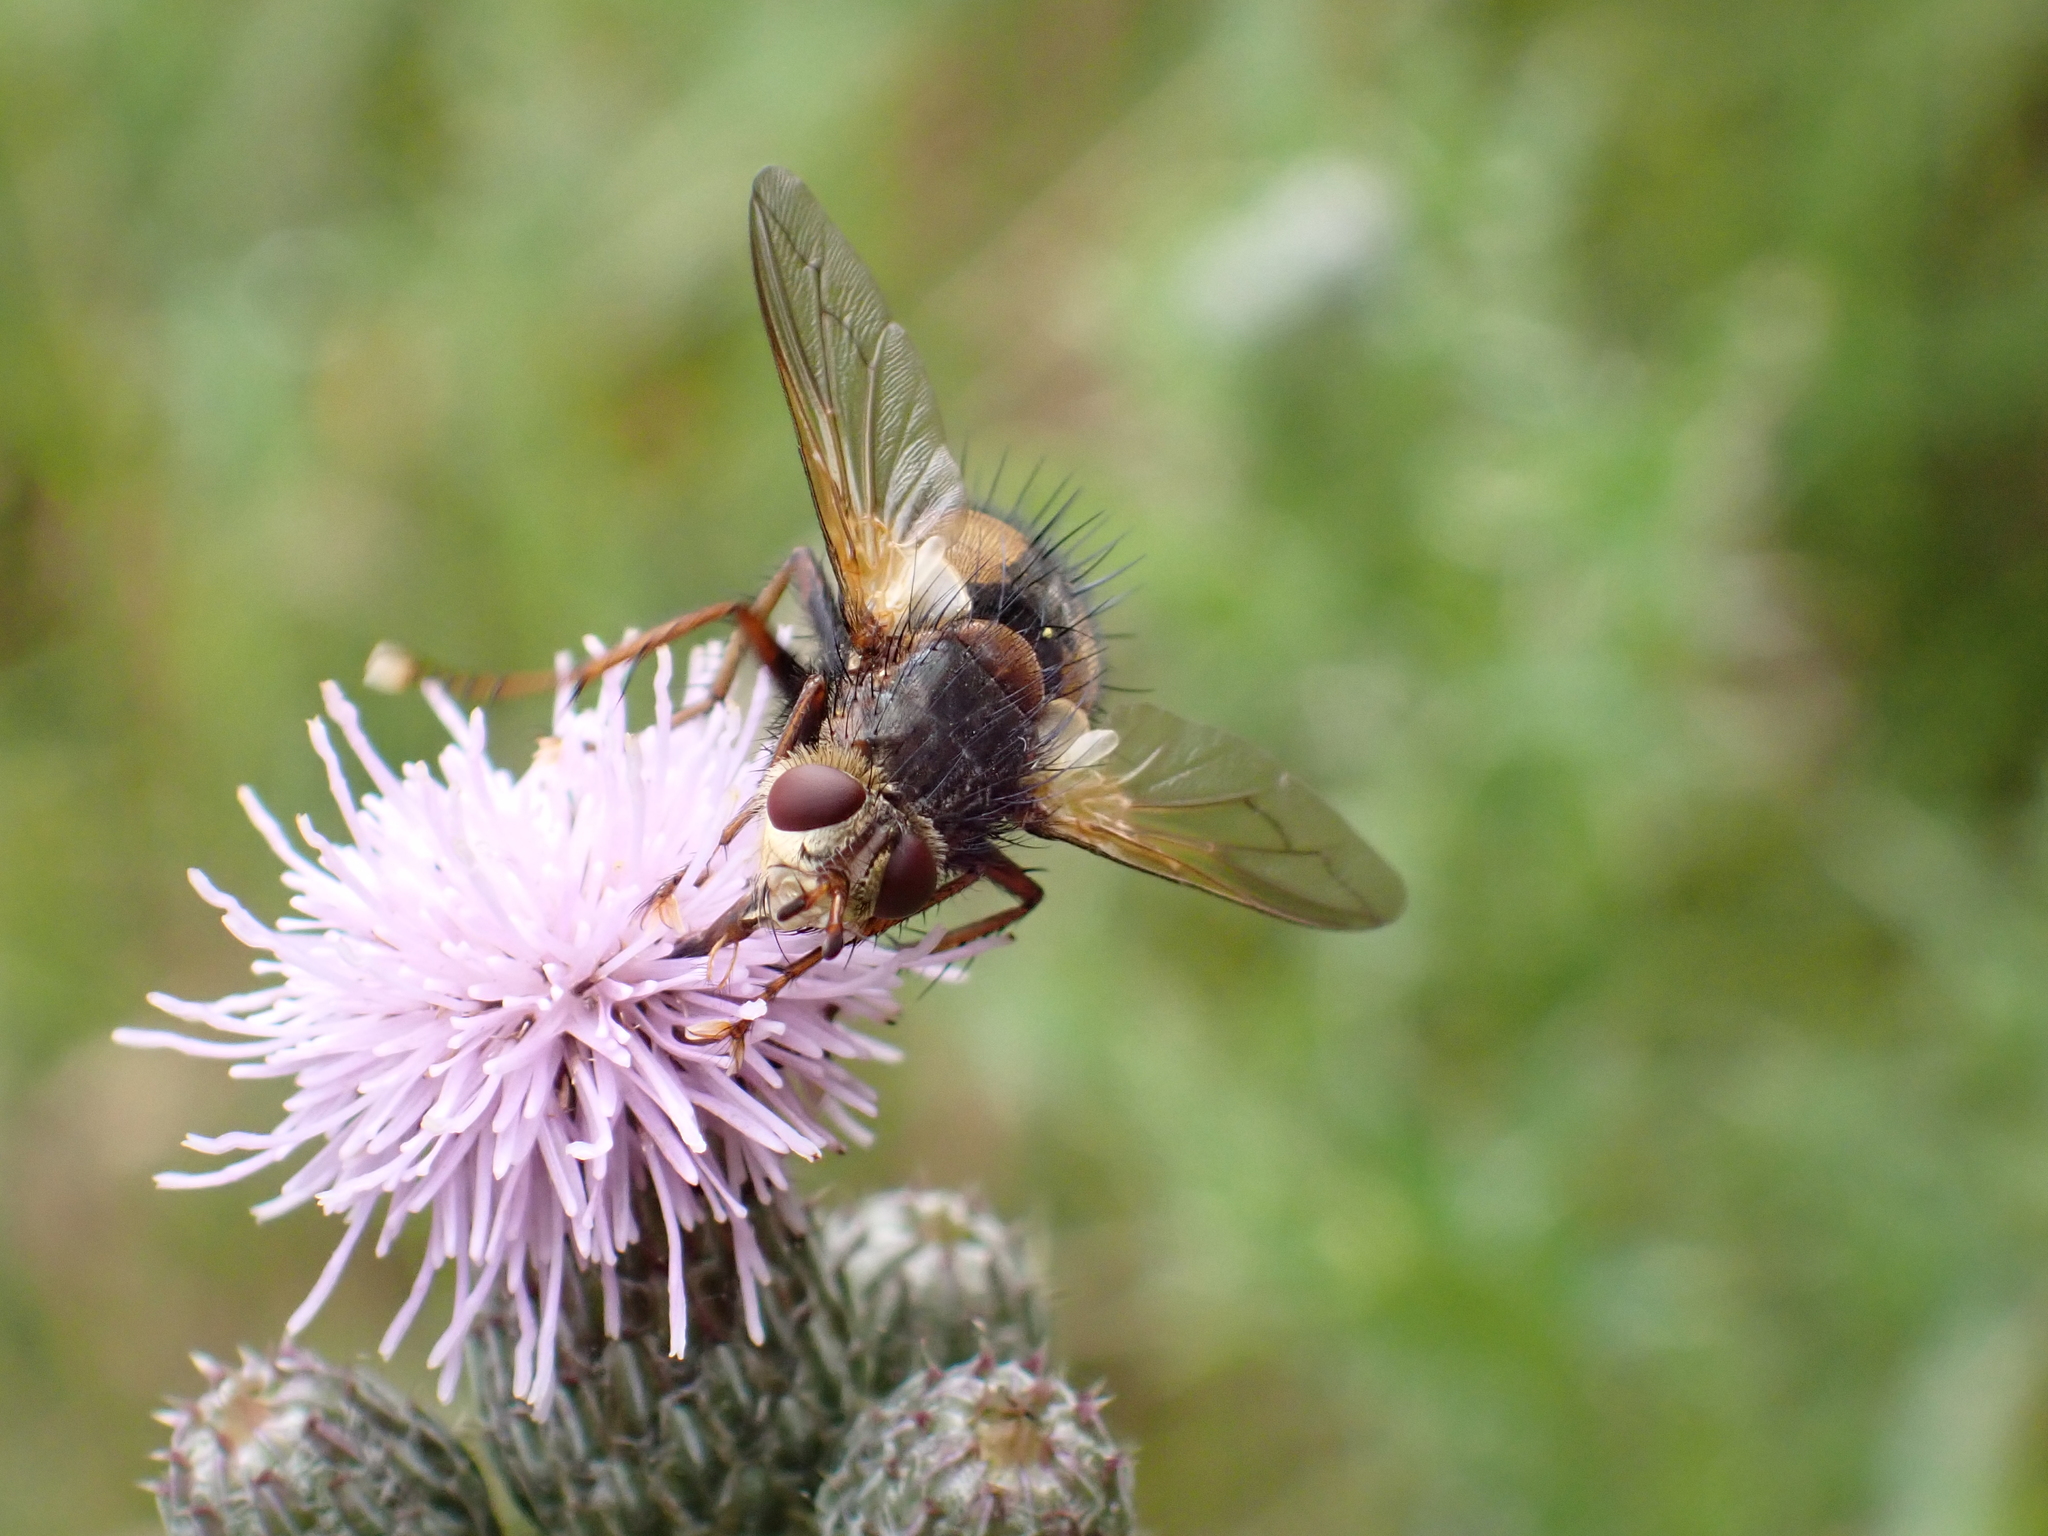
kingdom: Animalia
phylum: Arthropoda
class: Insecta
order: Diptera
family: Tachinidae
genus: Tachina
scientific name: Tachina fera
